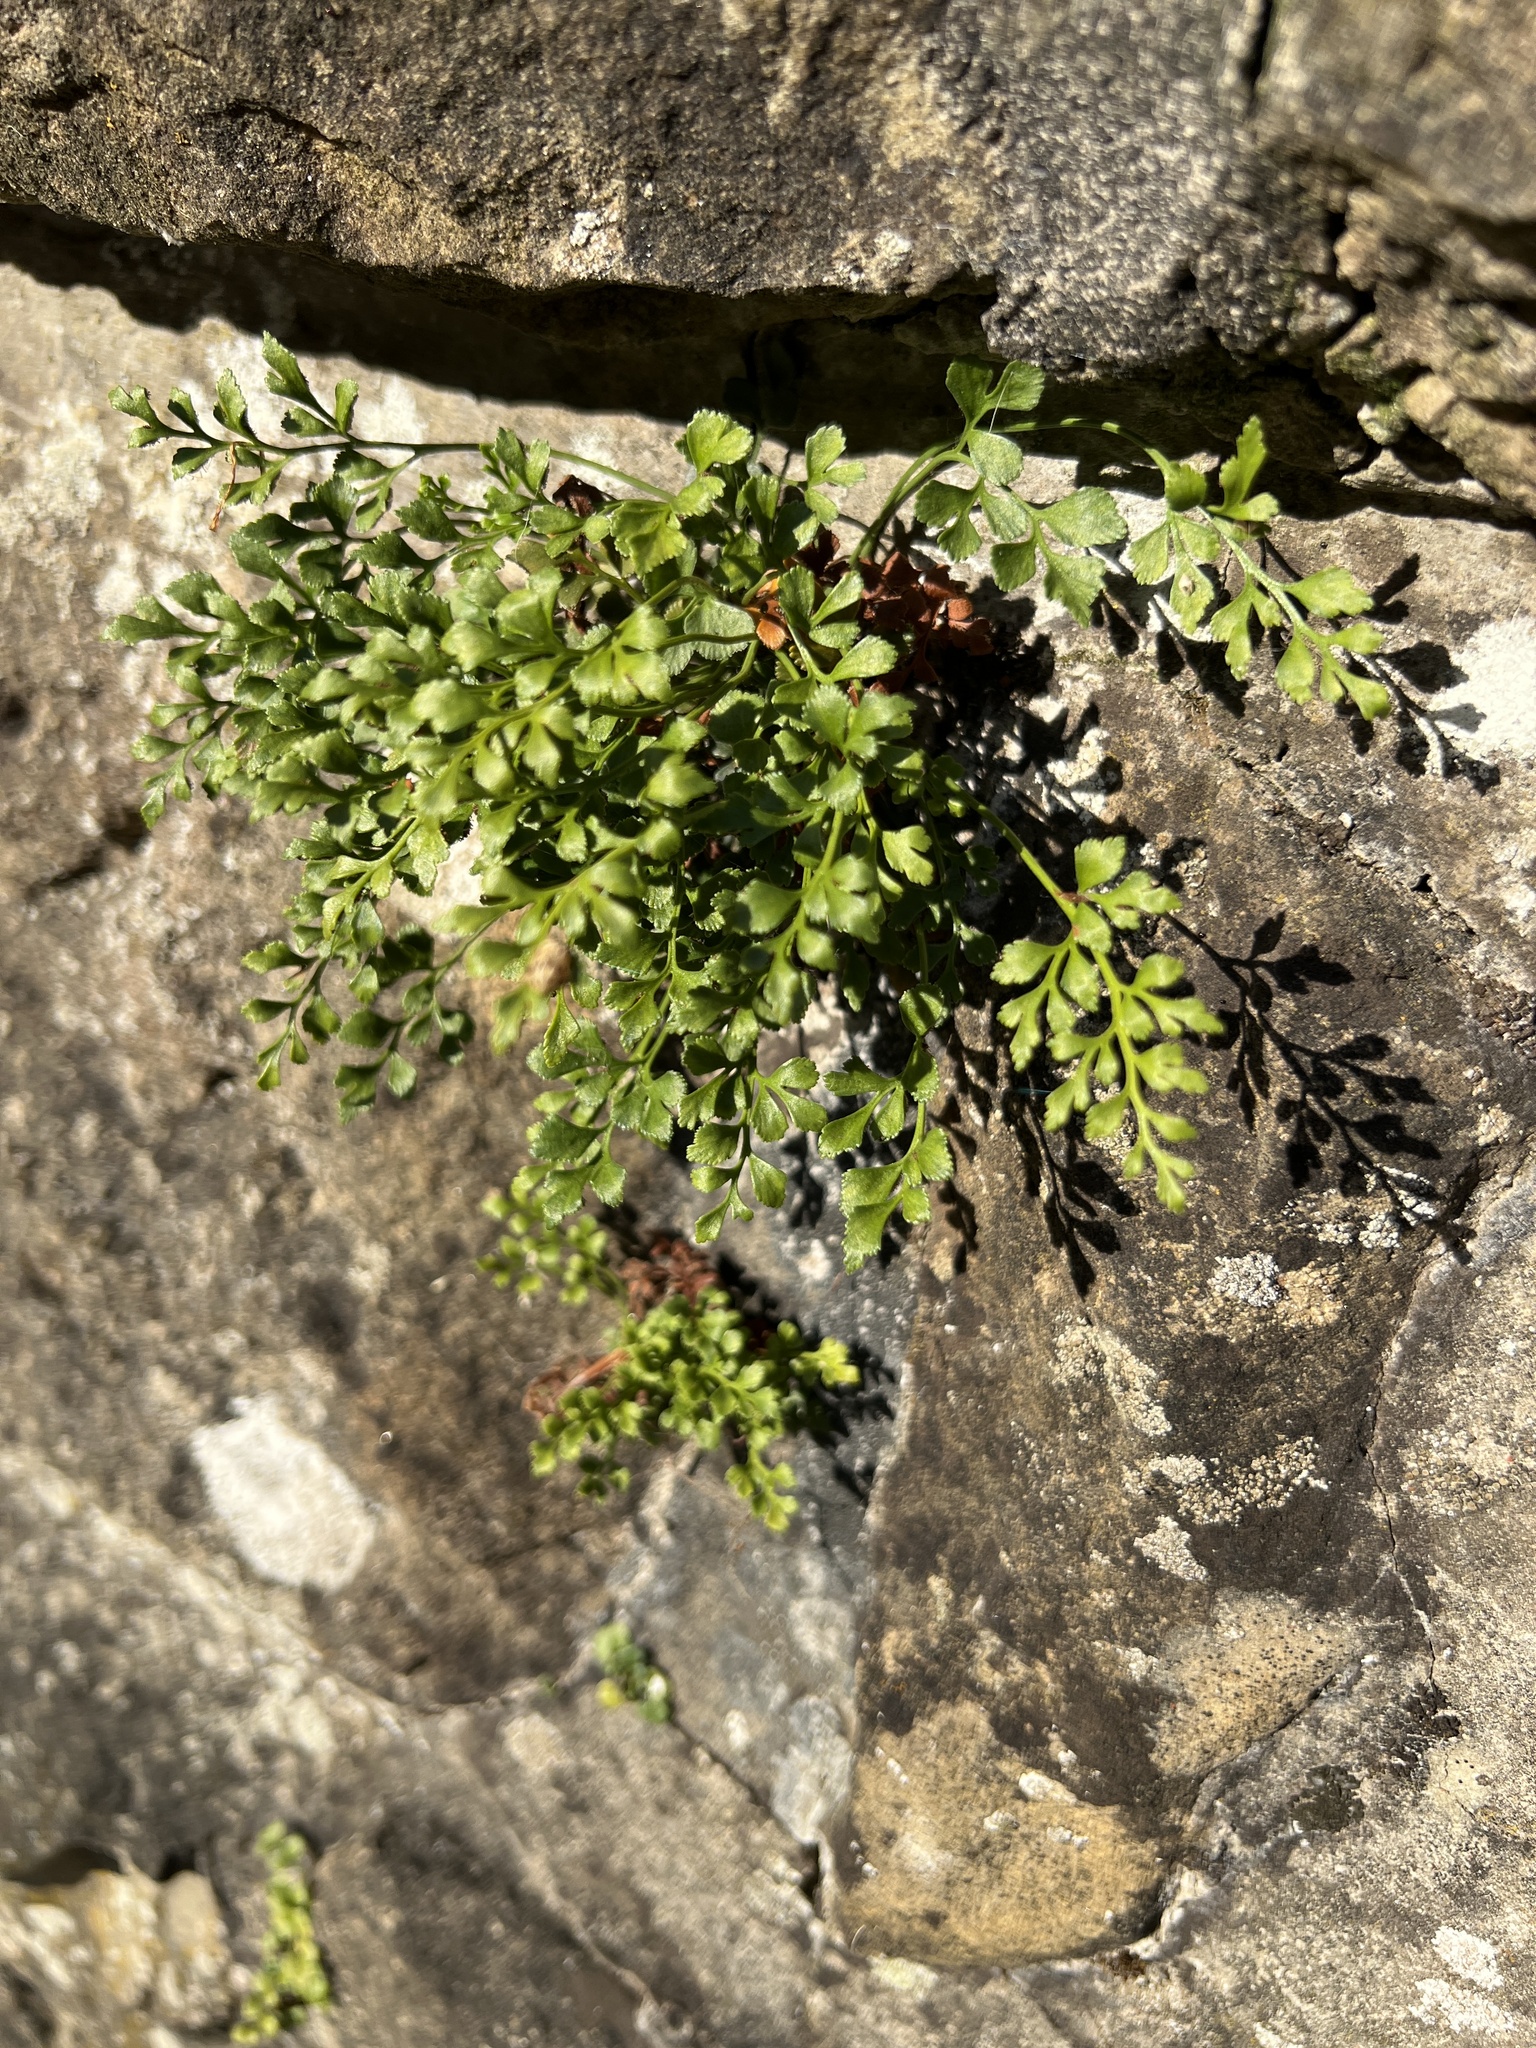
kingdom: Plantae
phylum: Tracheophyta
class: Polypodiopsida
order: Polypodiales
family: Aspleniaceae
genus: Asplenium
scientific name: Asplenium ruta-muraria
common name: Wall-rue
